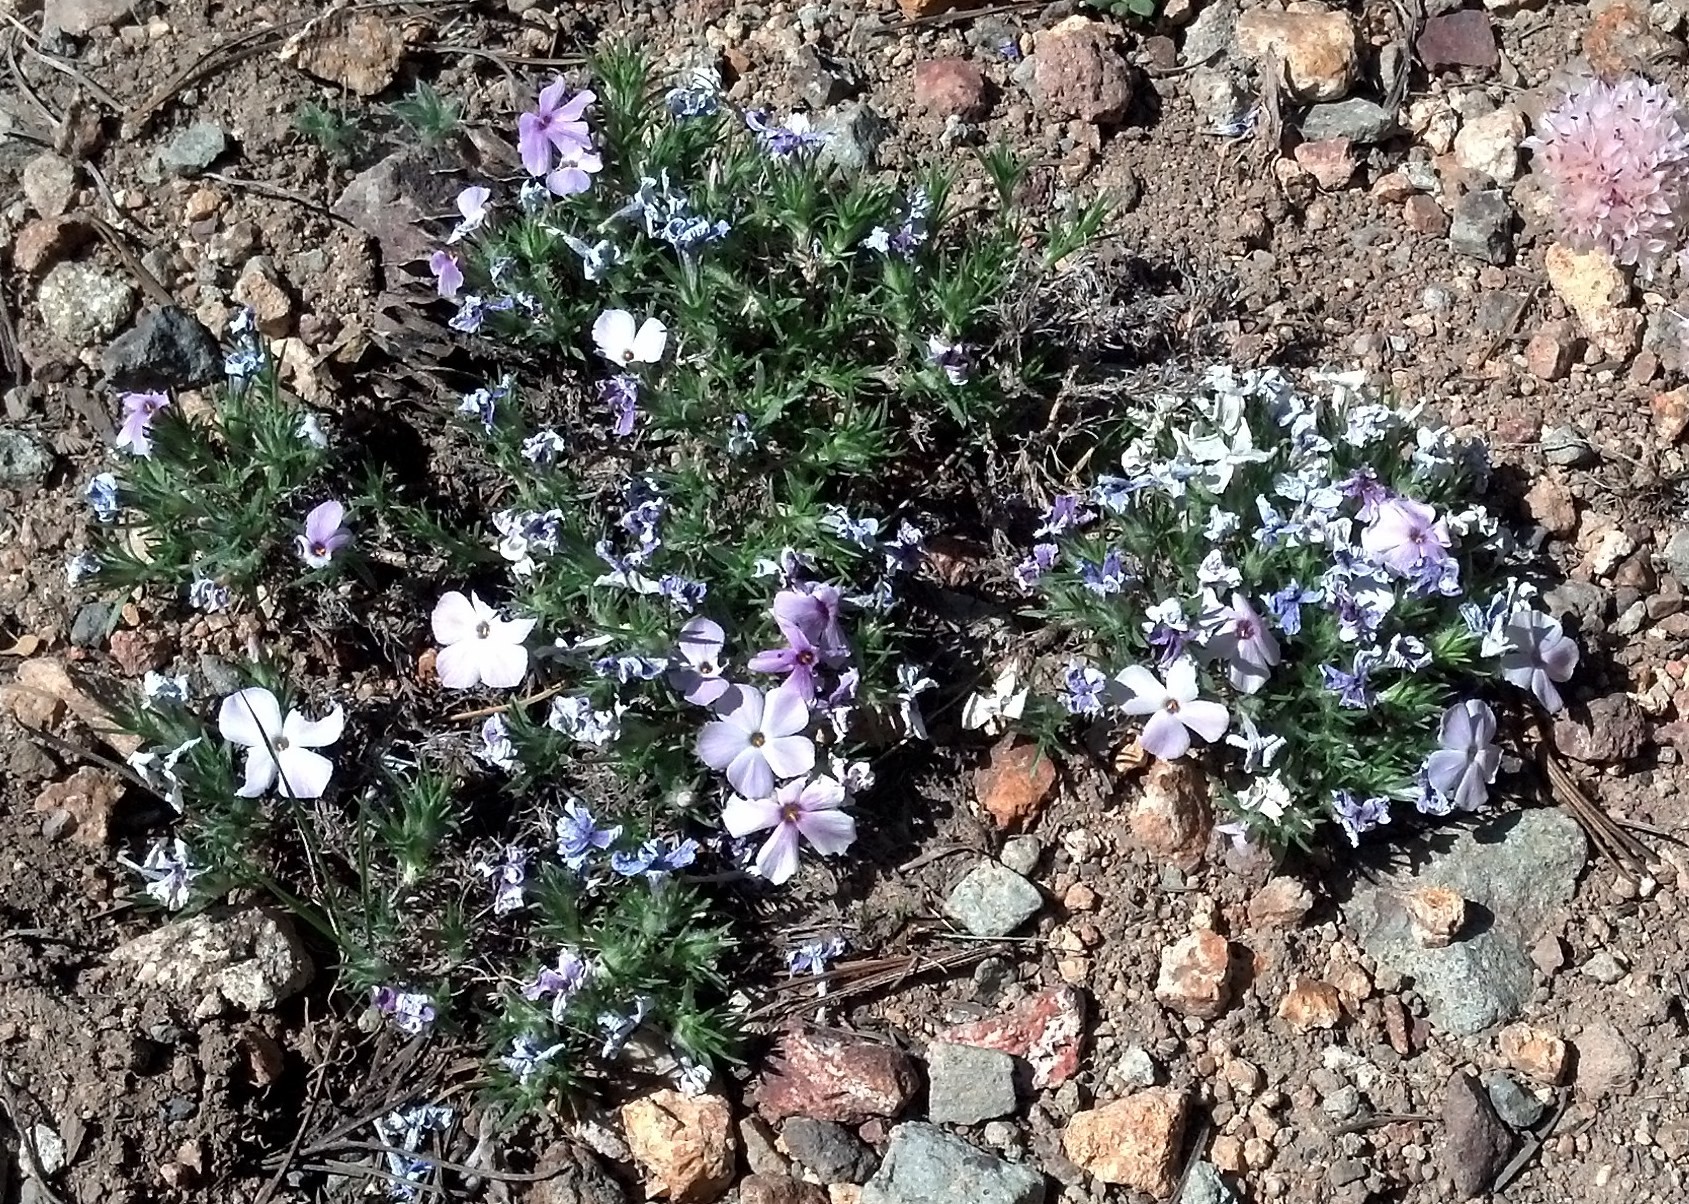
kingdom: Plantae
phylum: Tracheophyta
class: Magnoliopsida
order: Ericales
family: Polemoniaceae
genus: Phlox
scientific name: Phlox diffusa
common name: Mat phlox
